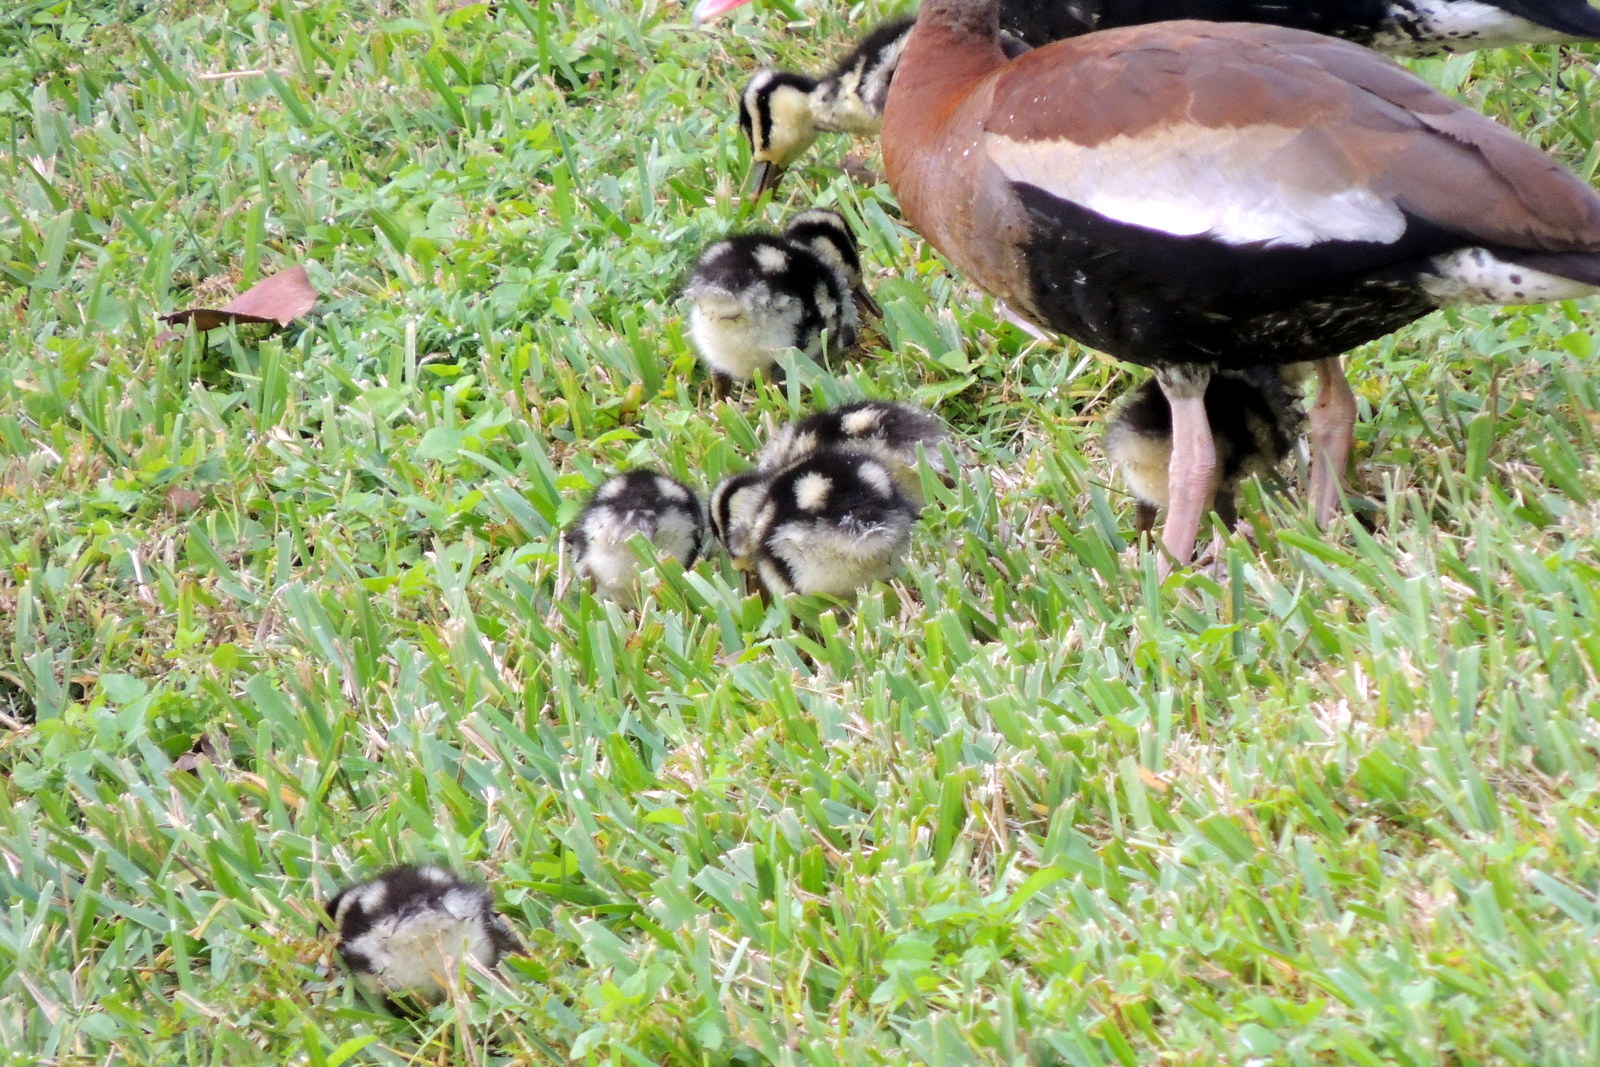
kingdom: Animalia
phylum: Chordata
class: Aves
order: Anseriformes
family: Anatidae
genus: Dendrocygna
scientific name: Dendrocygna autumnalis
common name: Black-bellied whistling duck
